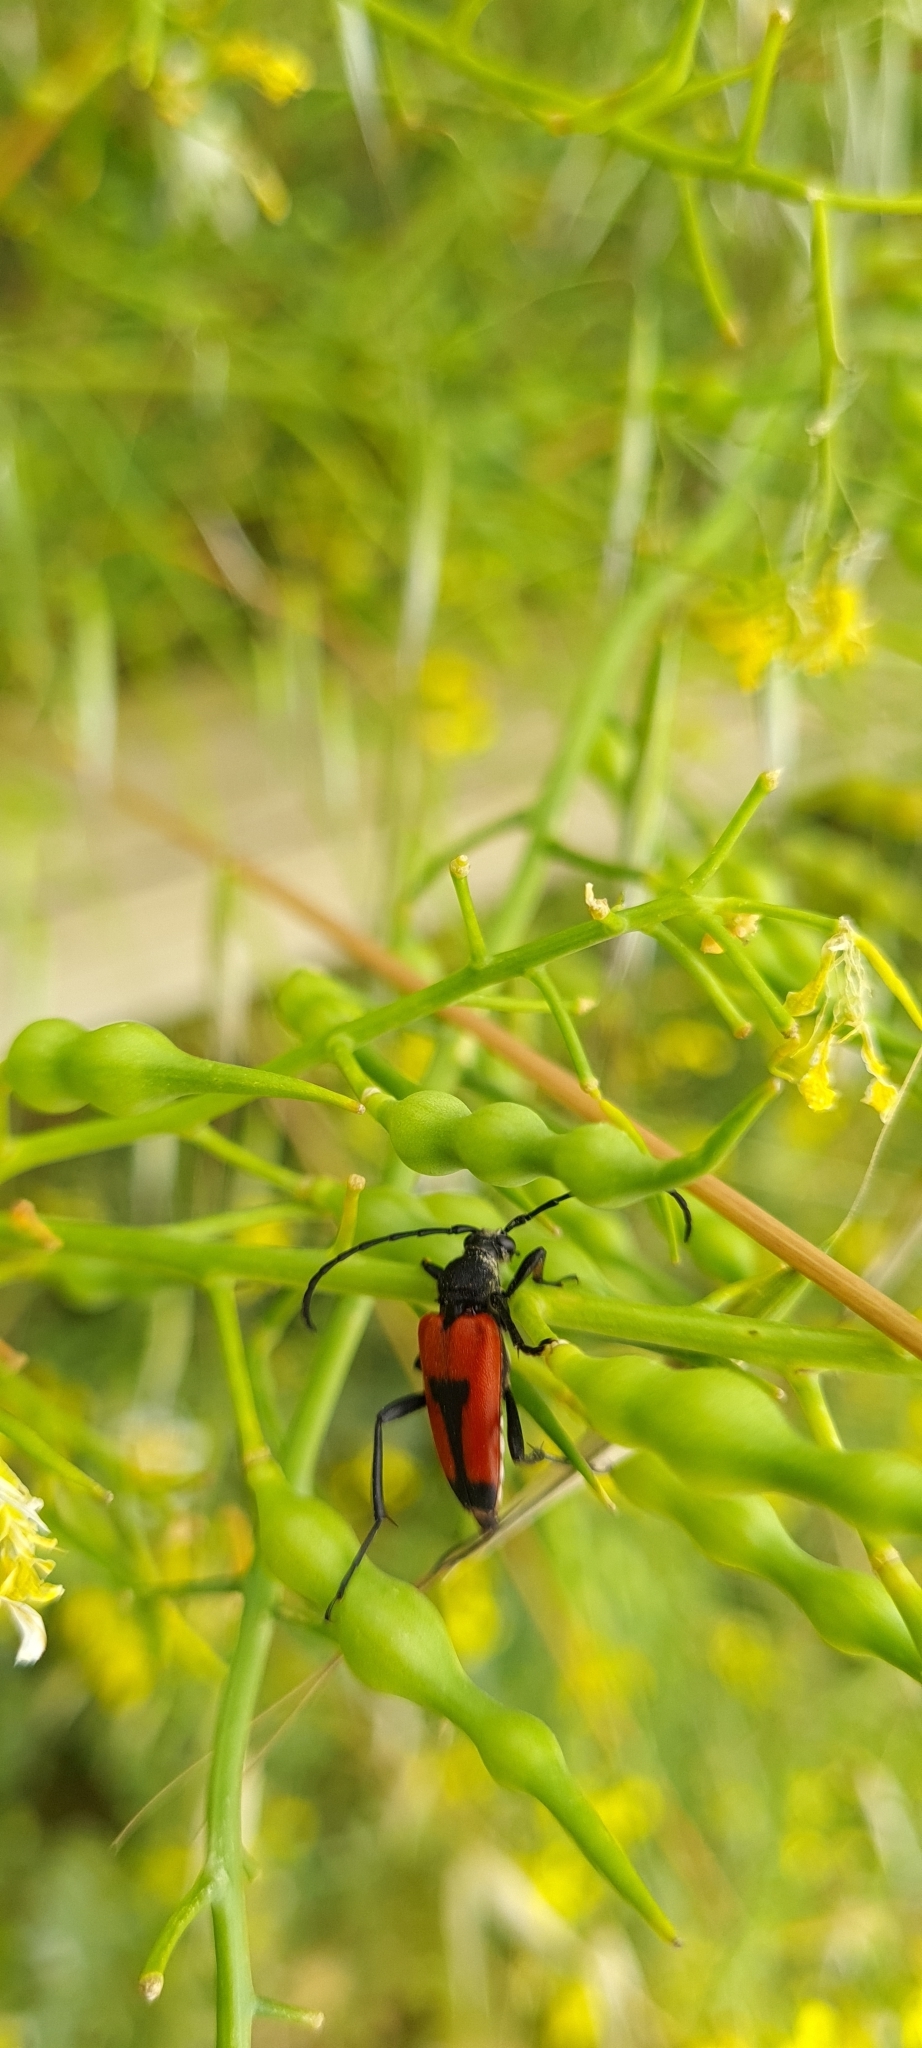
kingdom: Animalia
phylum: Arthropoda
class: Insecta
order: Coleoptera
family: Cerambycidae
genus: Stictoleptura
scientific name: Stictoleptura cordigera
